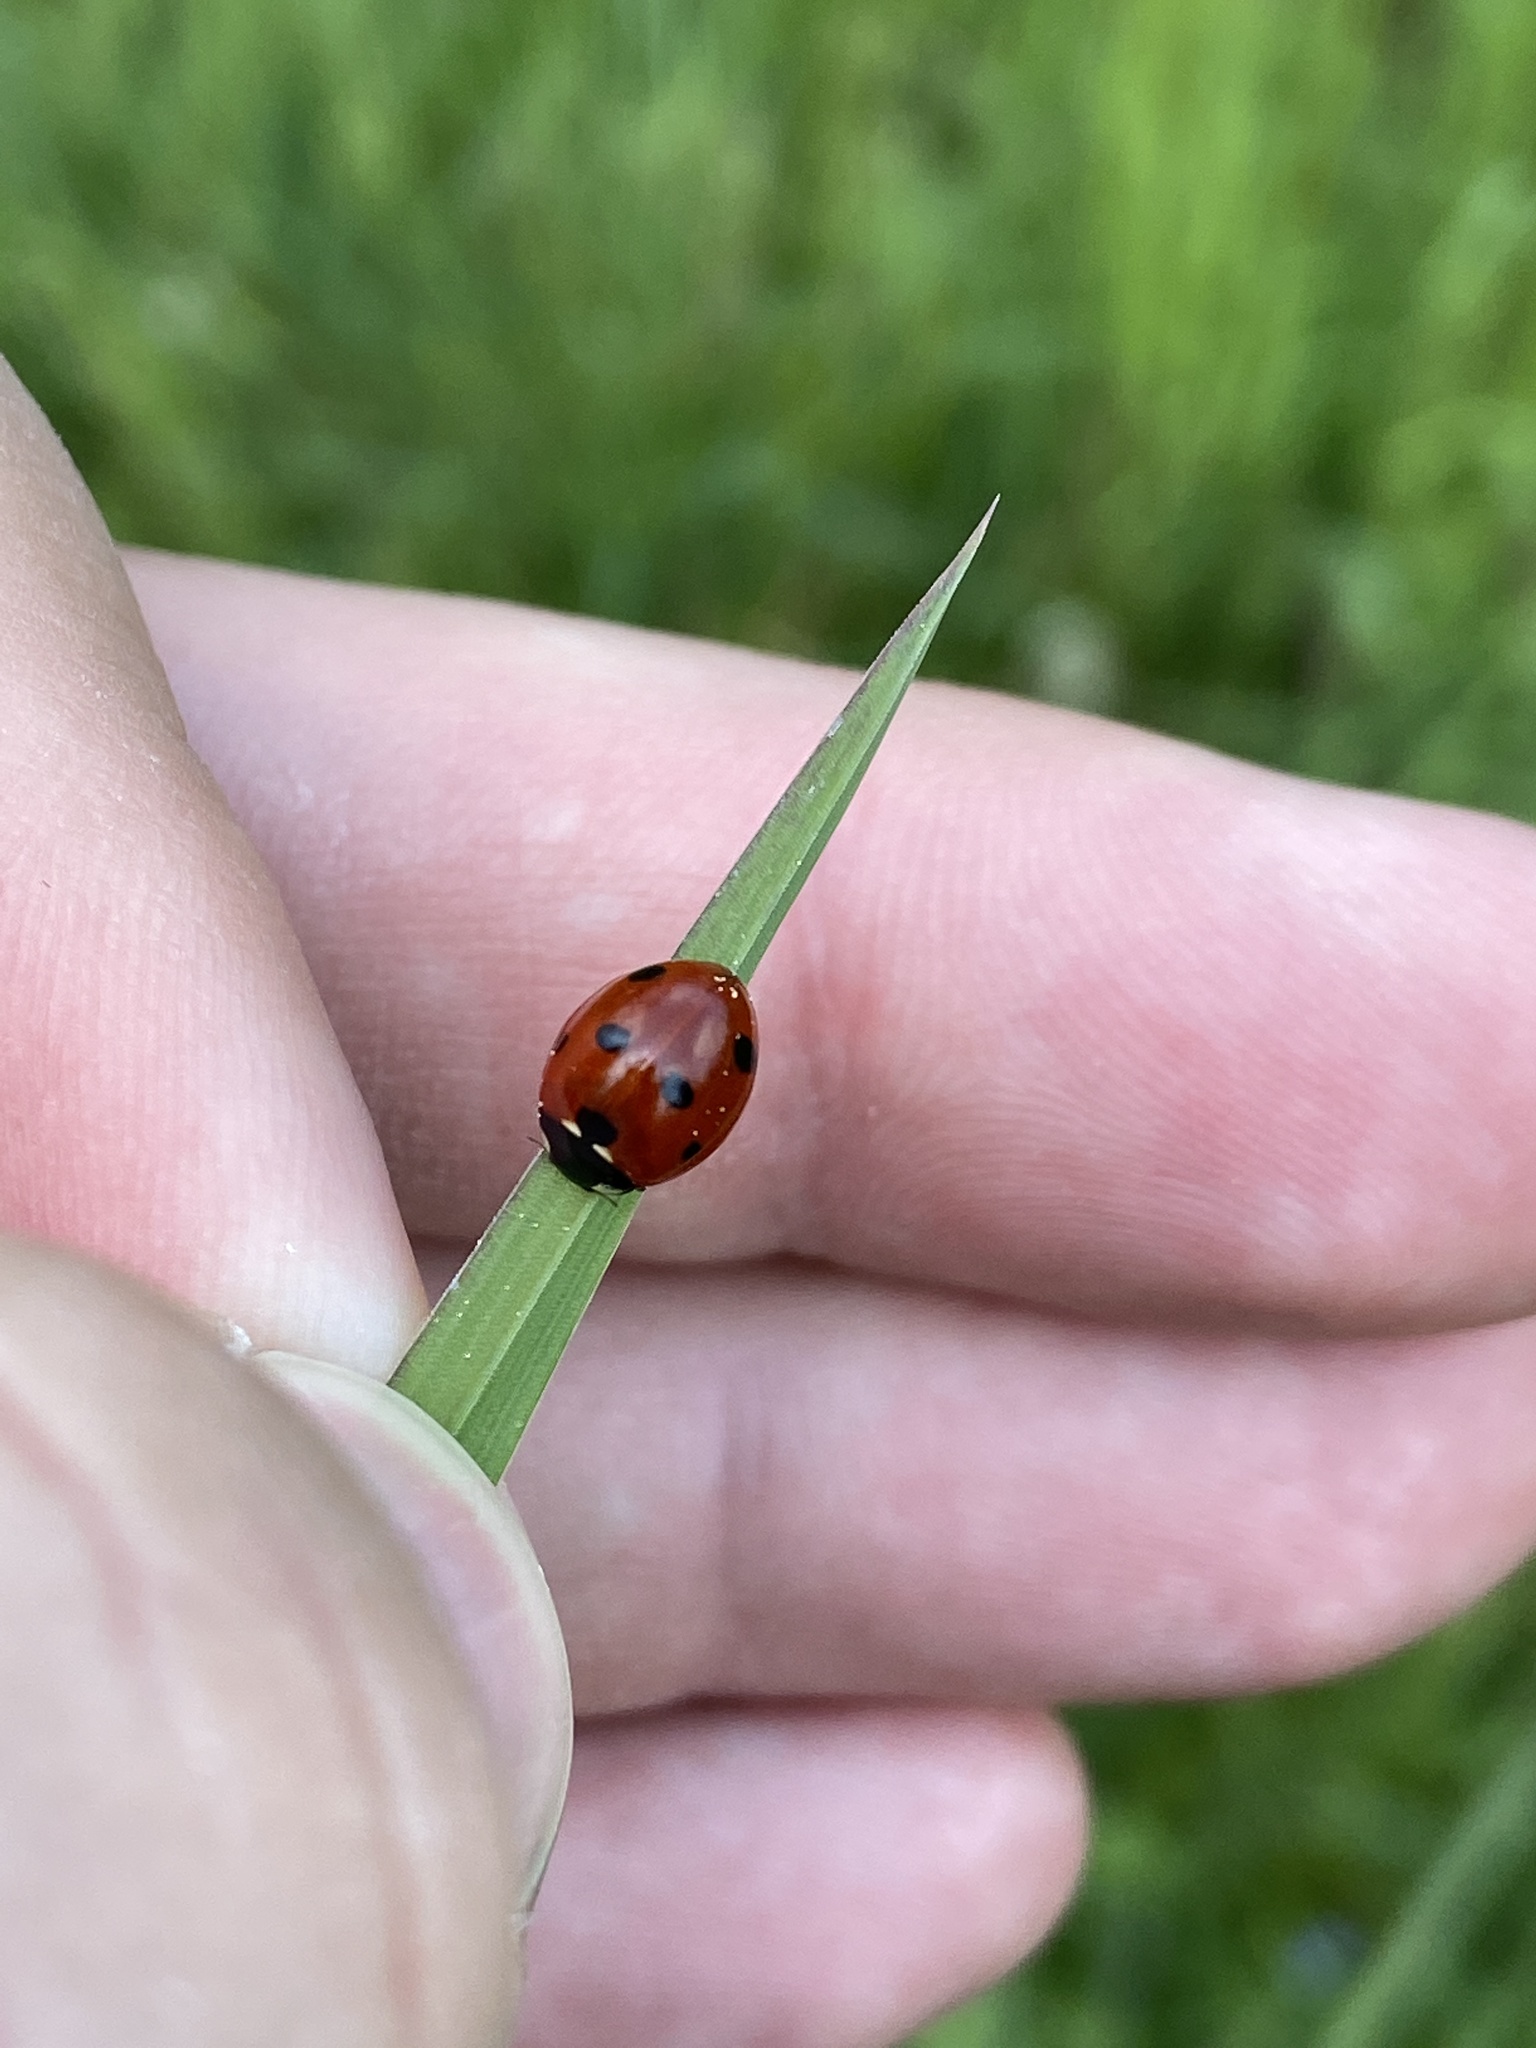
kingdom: Animalia
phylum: Arthropoda
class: Insecta
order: Coleoptera
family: Coccinellidae
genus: Coccinella
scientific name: Coccinella septempunctata
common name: Sevenspotted lady beetle
